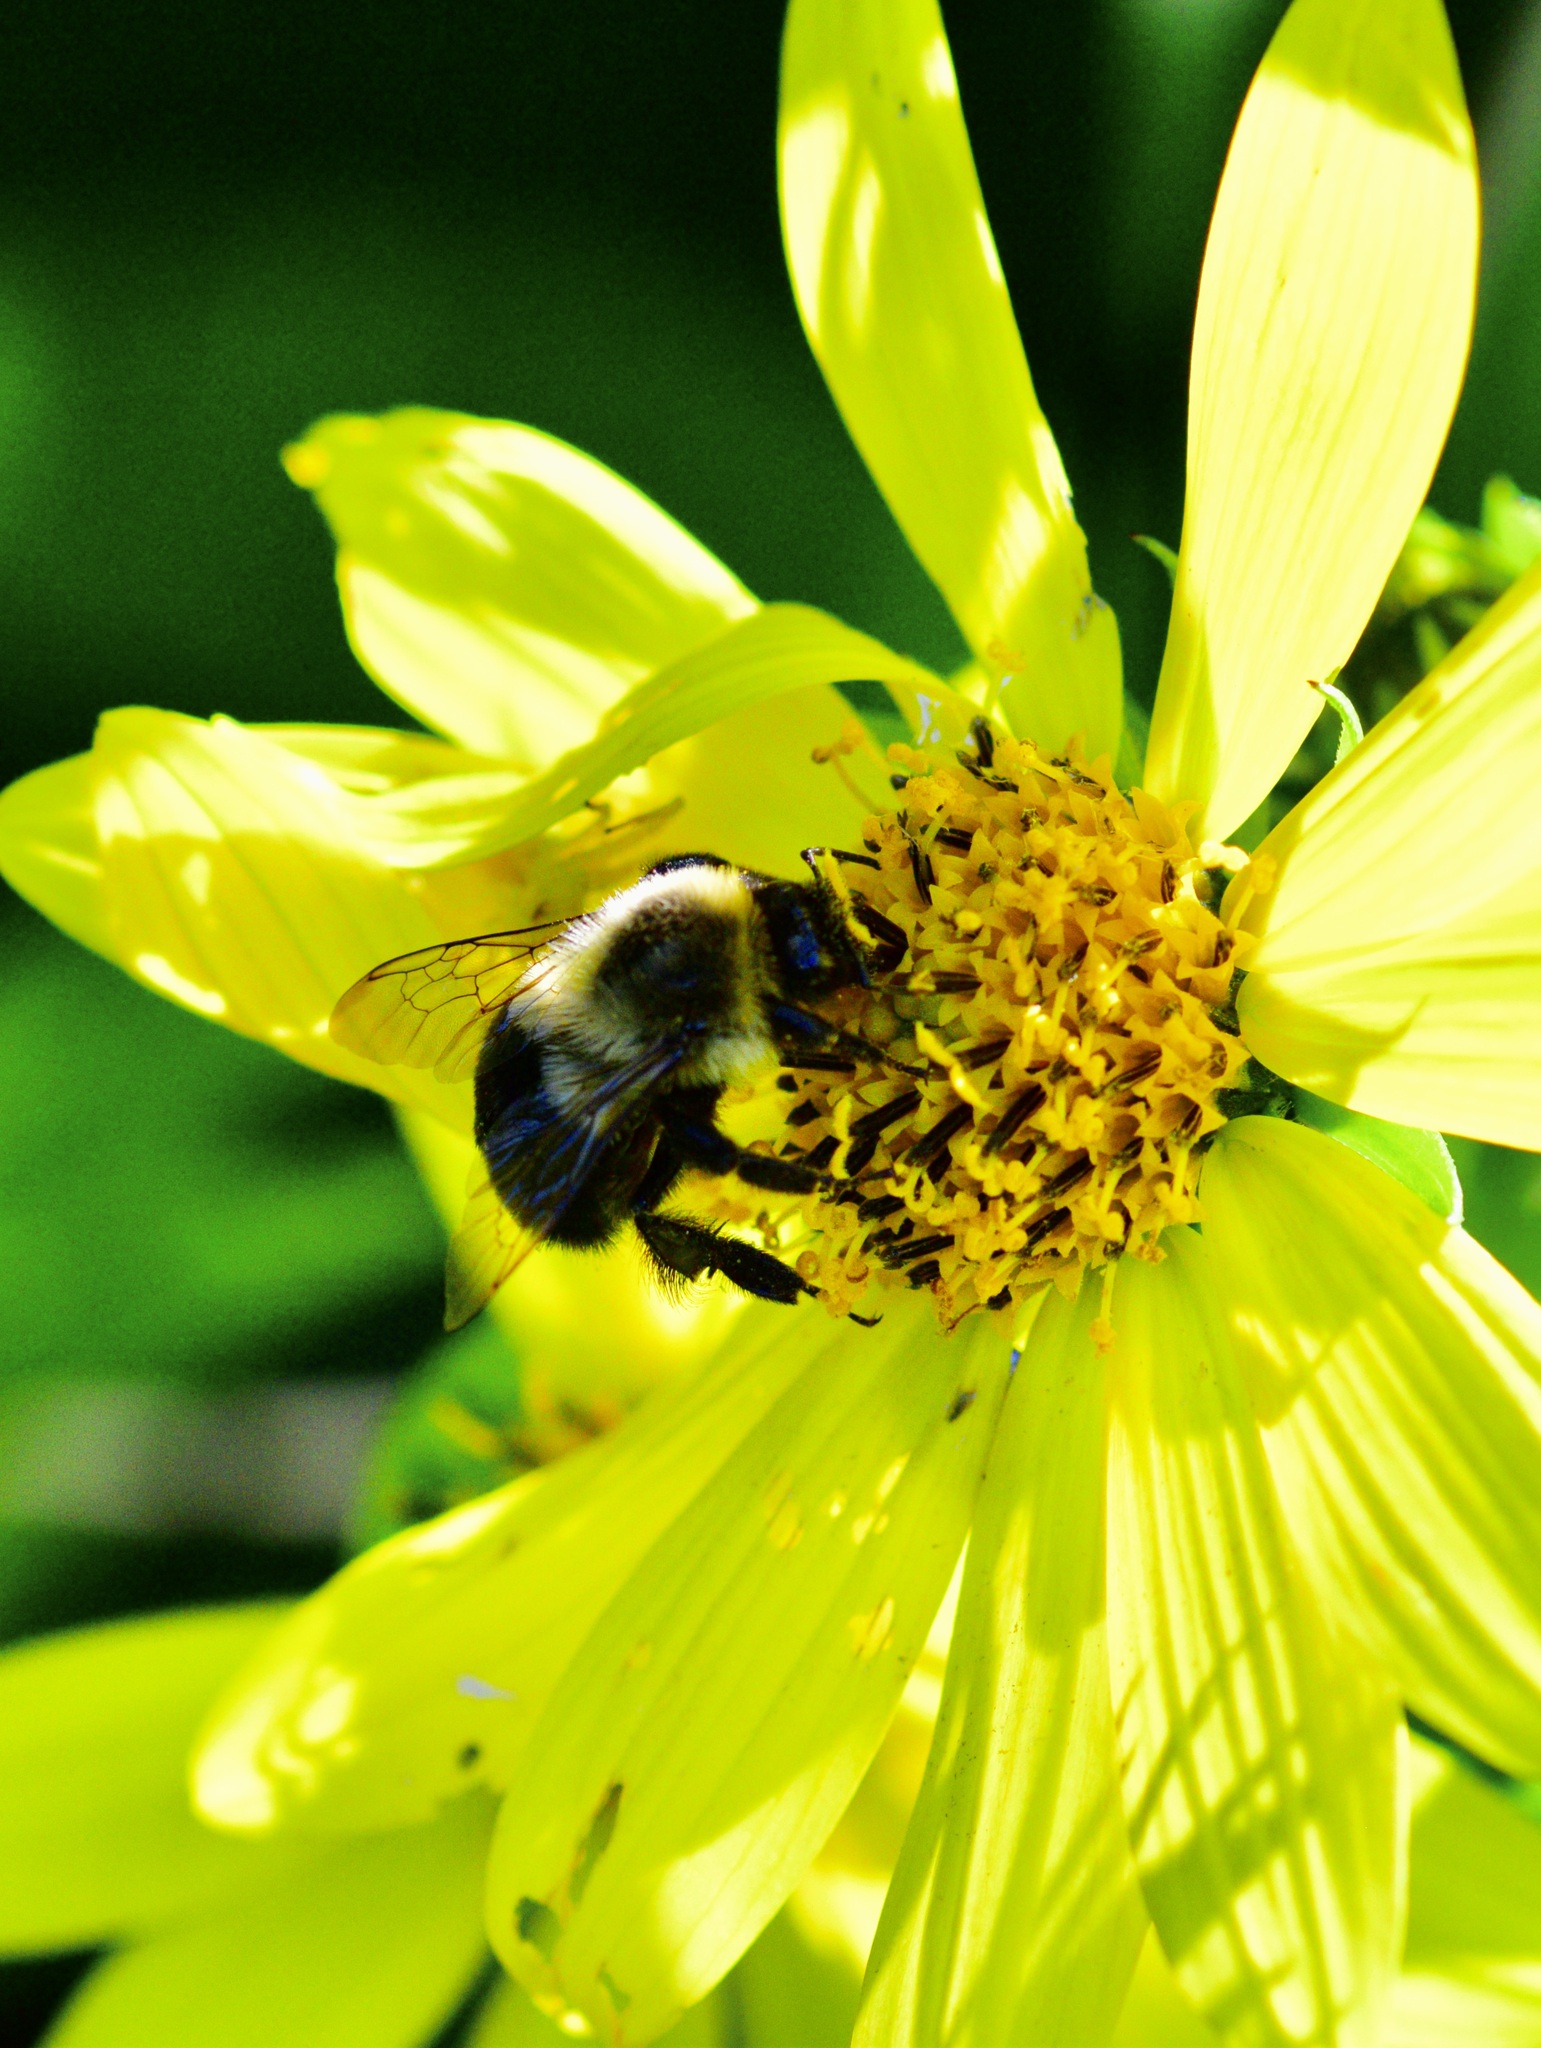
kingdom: Animalia
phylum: Arthropoda
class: Insecta
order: Hymenoptera
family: Apidae
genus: Bombus
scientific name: Bombus impatiens
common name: Common eastern bumble bee
